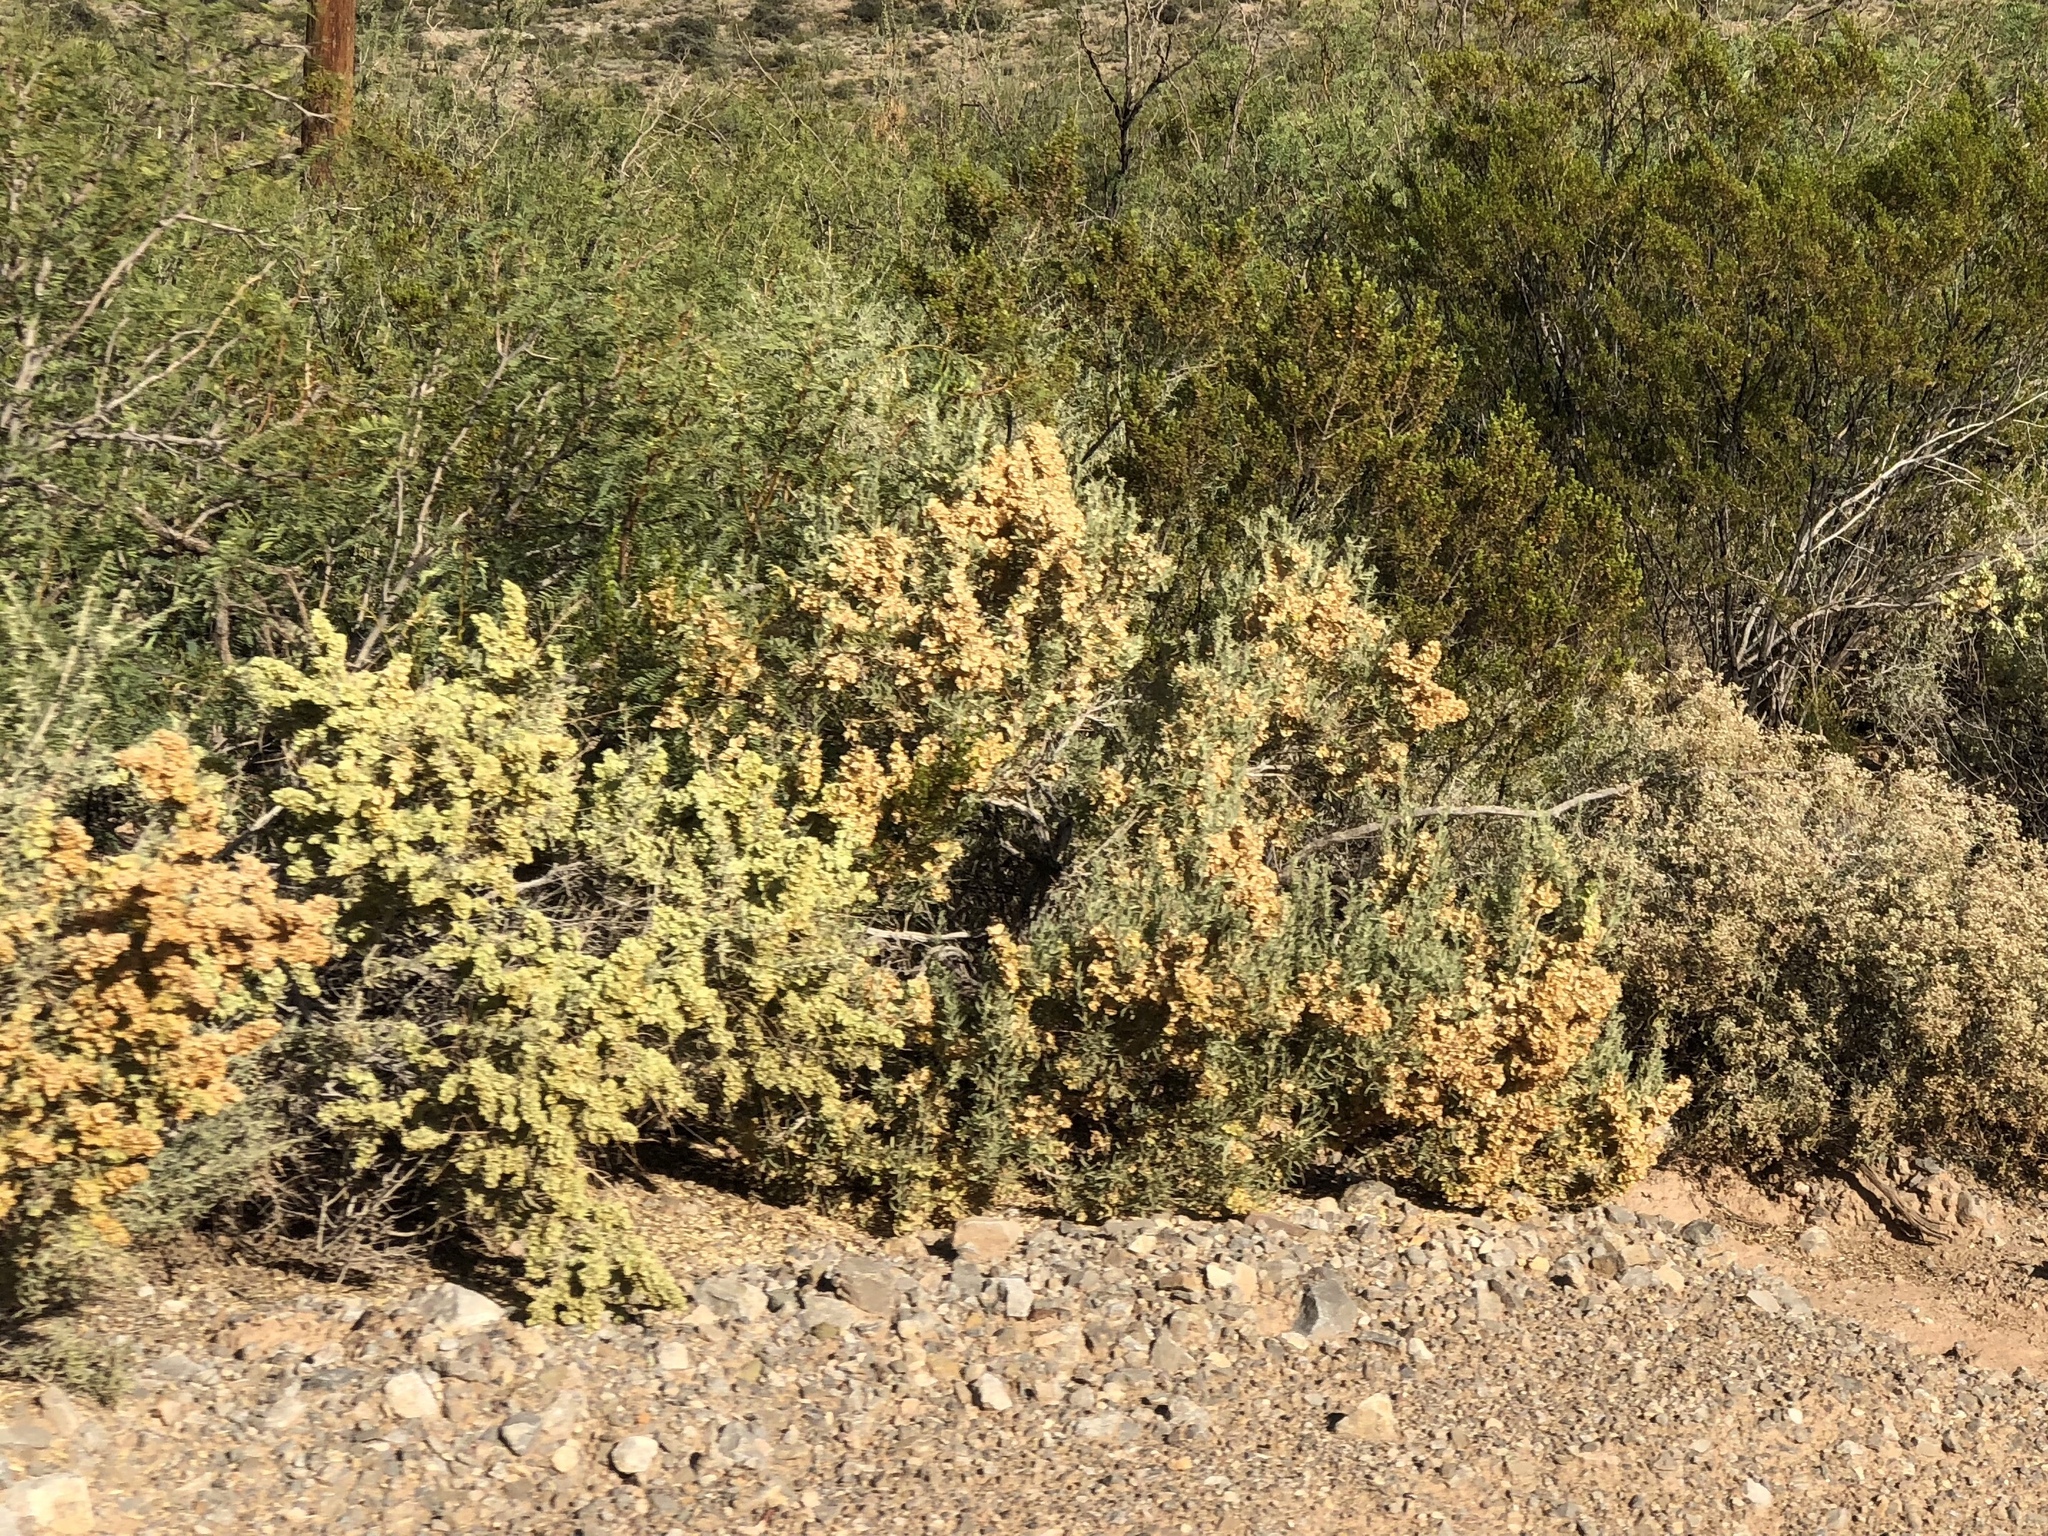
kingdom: Plantae
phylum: Tracheophyta
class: Magnoliopsida
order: Caryophyllales
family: Amaranthaceae
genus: Atriplex
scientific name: Atriplex canescens
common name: Four-wing saltbush
